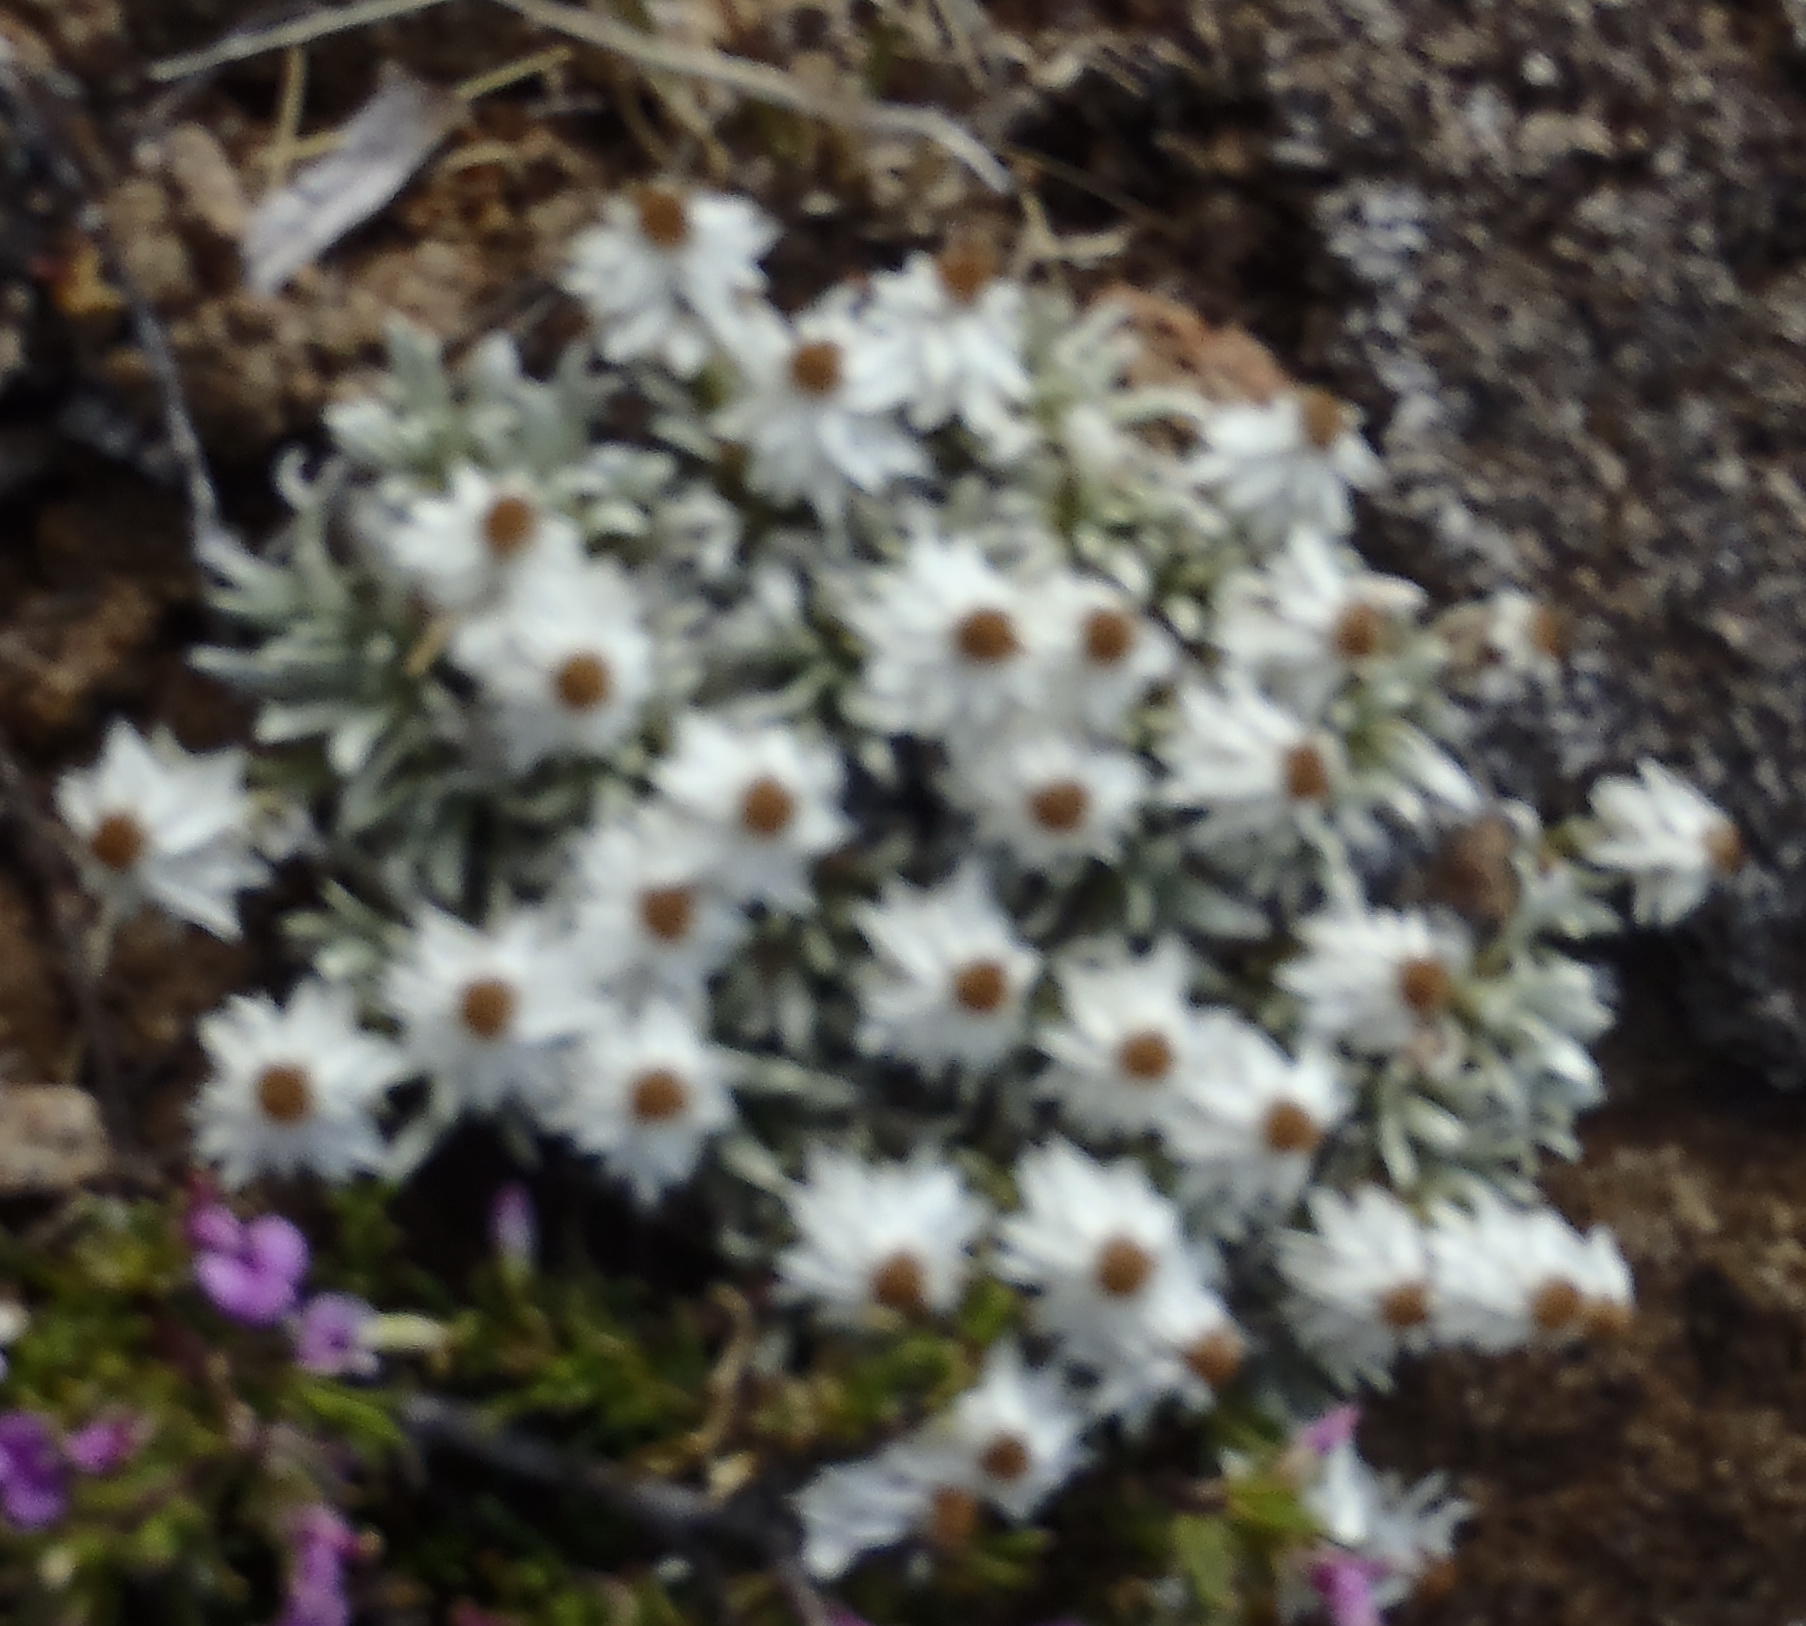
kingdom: Plantae
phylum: Tracheophyta
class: Magnoliopsida
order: Asterales
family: Asteraceae
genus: Helichrysum
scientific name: Helichrysum altigenum
